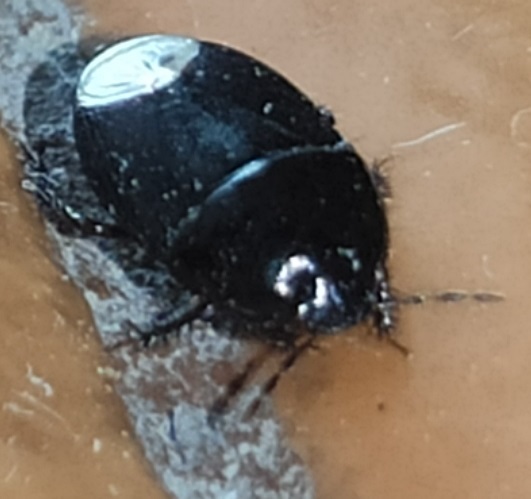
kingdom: Animalia
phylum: Arthropoda
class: Insecta
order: Hemiptera
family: Cydnidae
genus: Macroscytus
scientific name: Macroscytus brunneus
